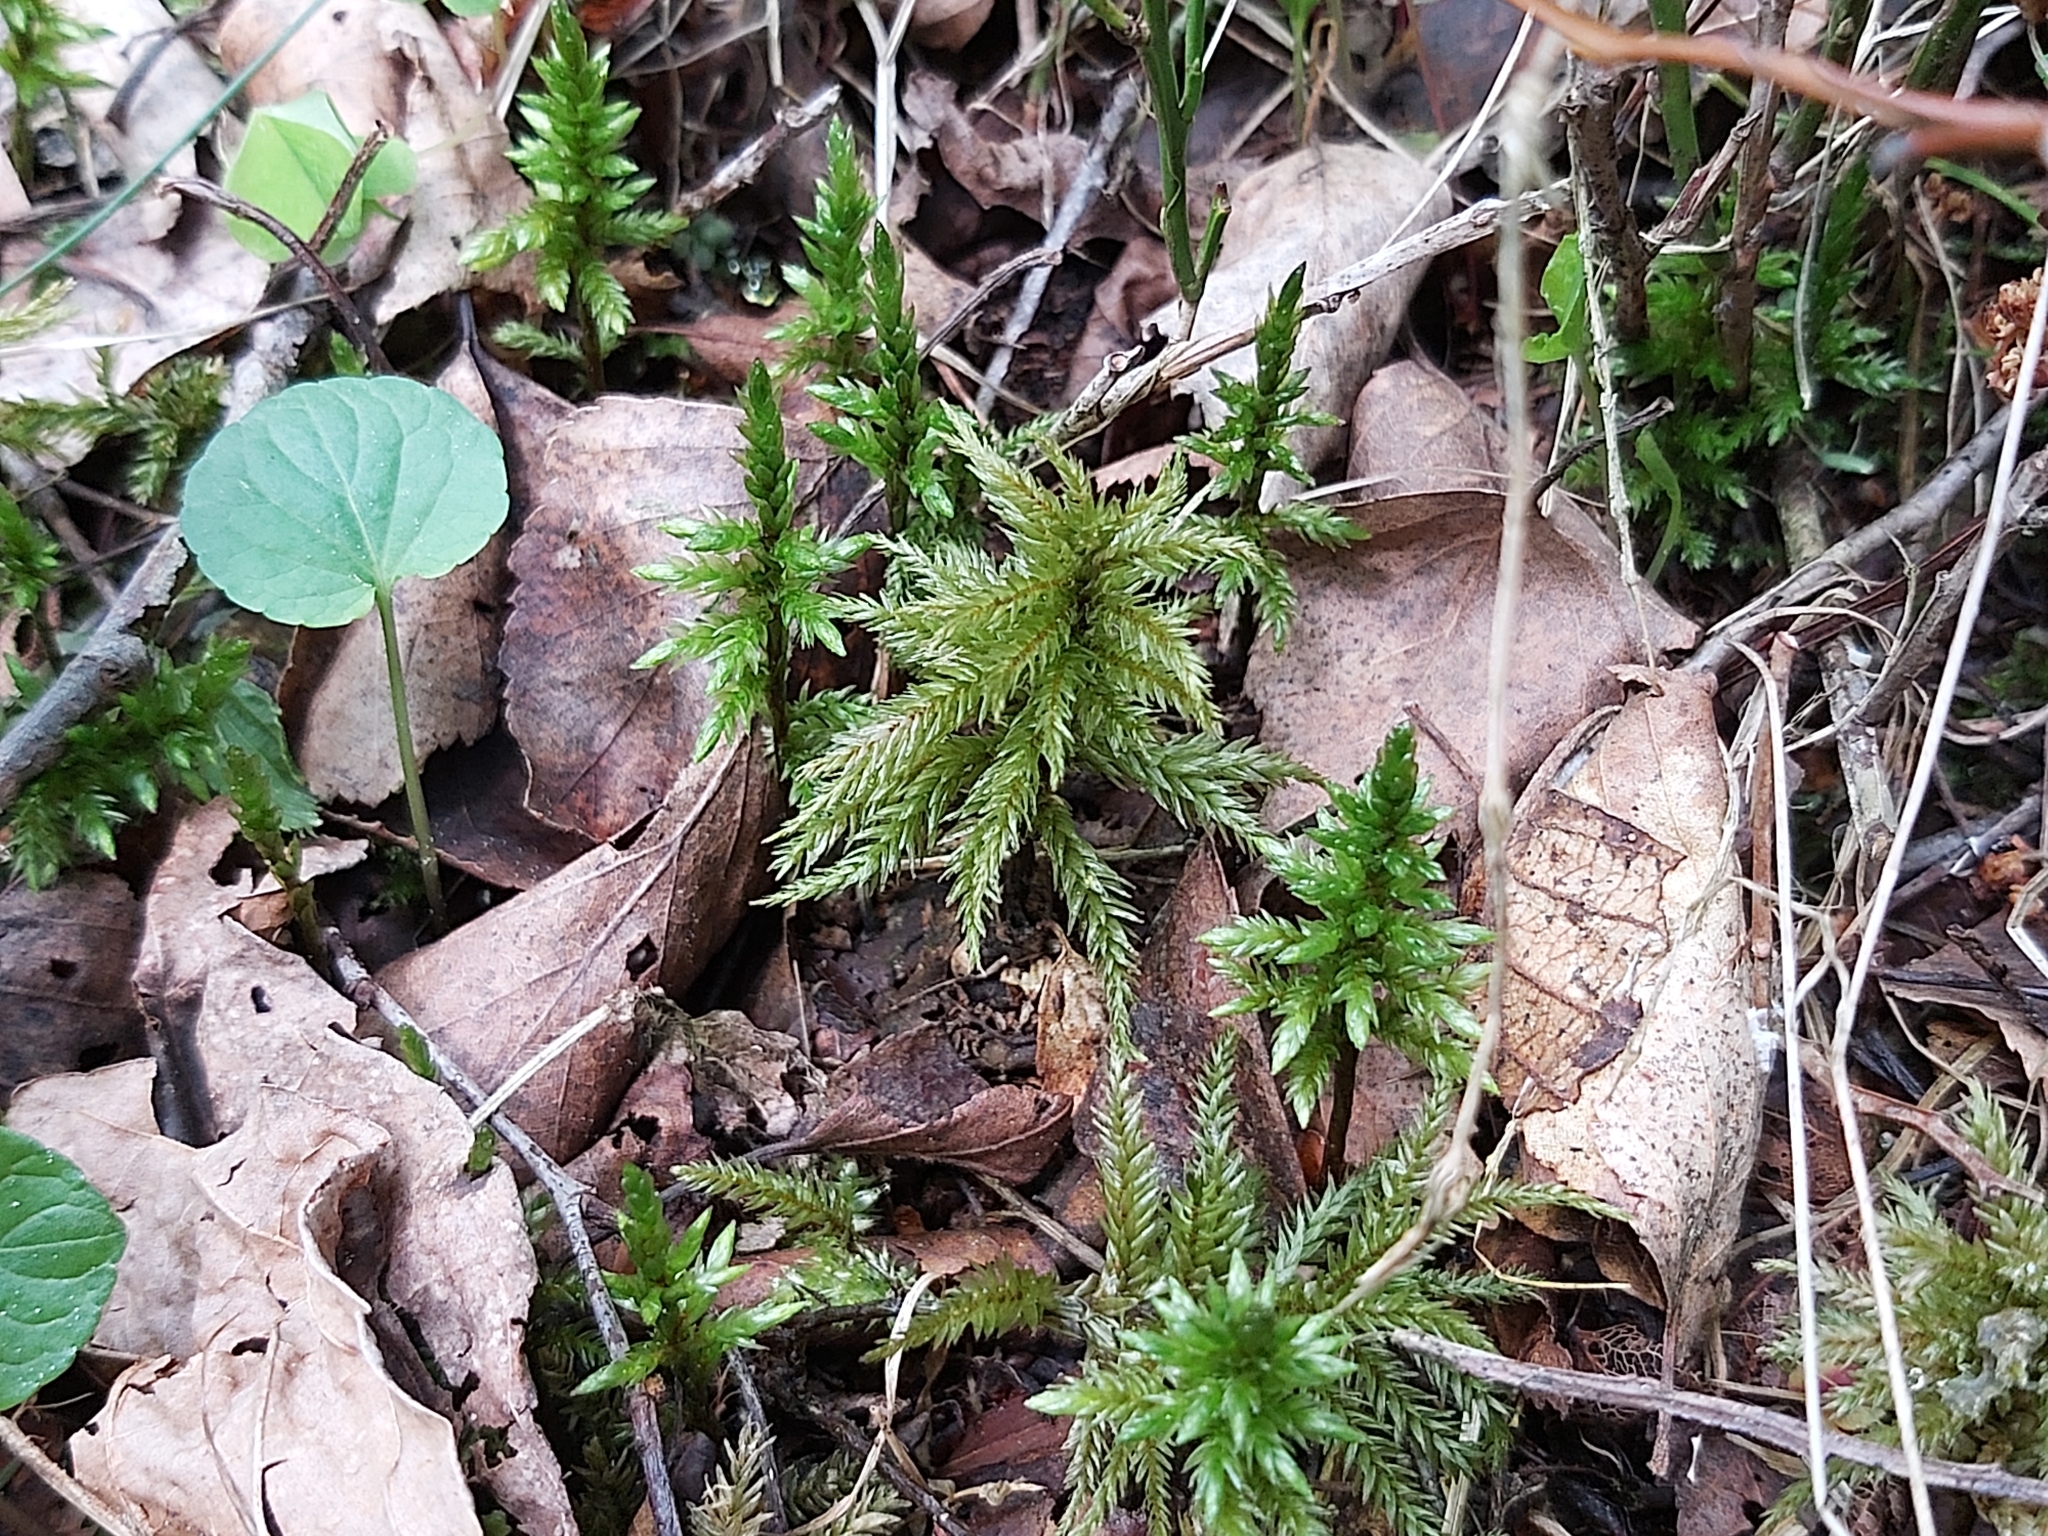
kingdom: Plantae
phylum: Bryophyta
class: Bryopsida
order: Hypnales
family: Climaciaceae
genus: Climacium
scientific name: Climacium dendroides
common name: Northern tree moss
